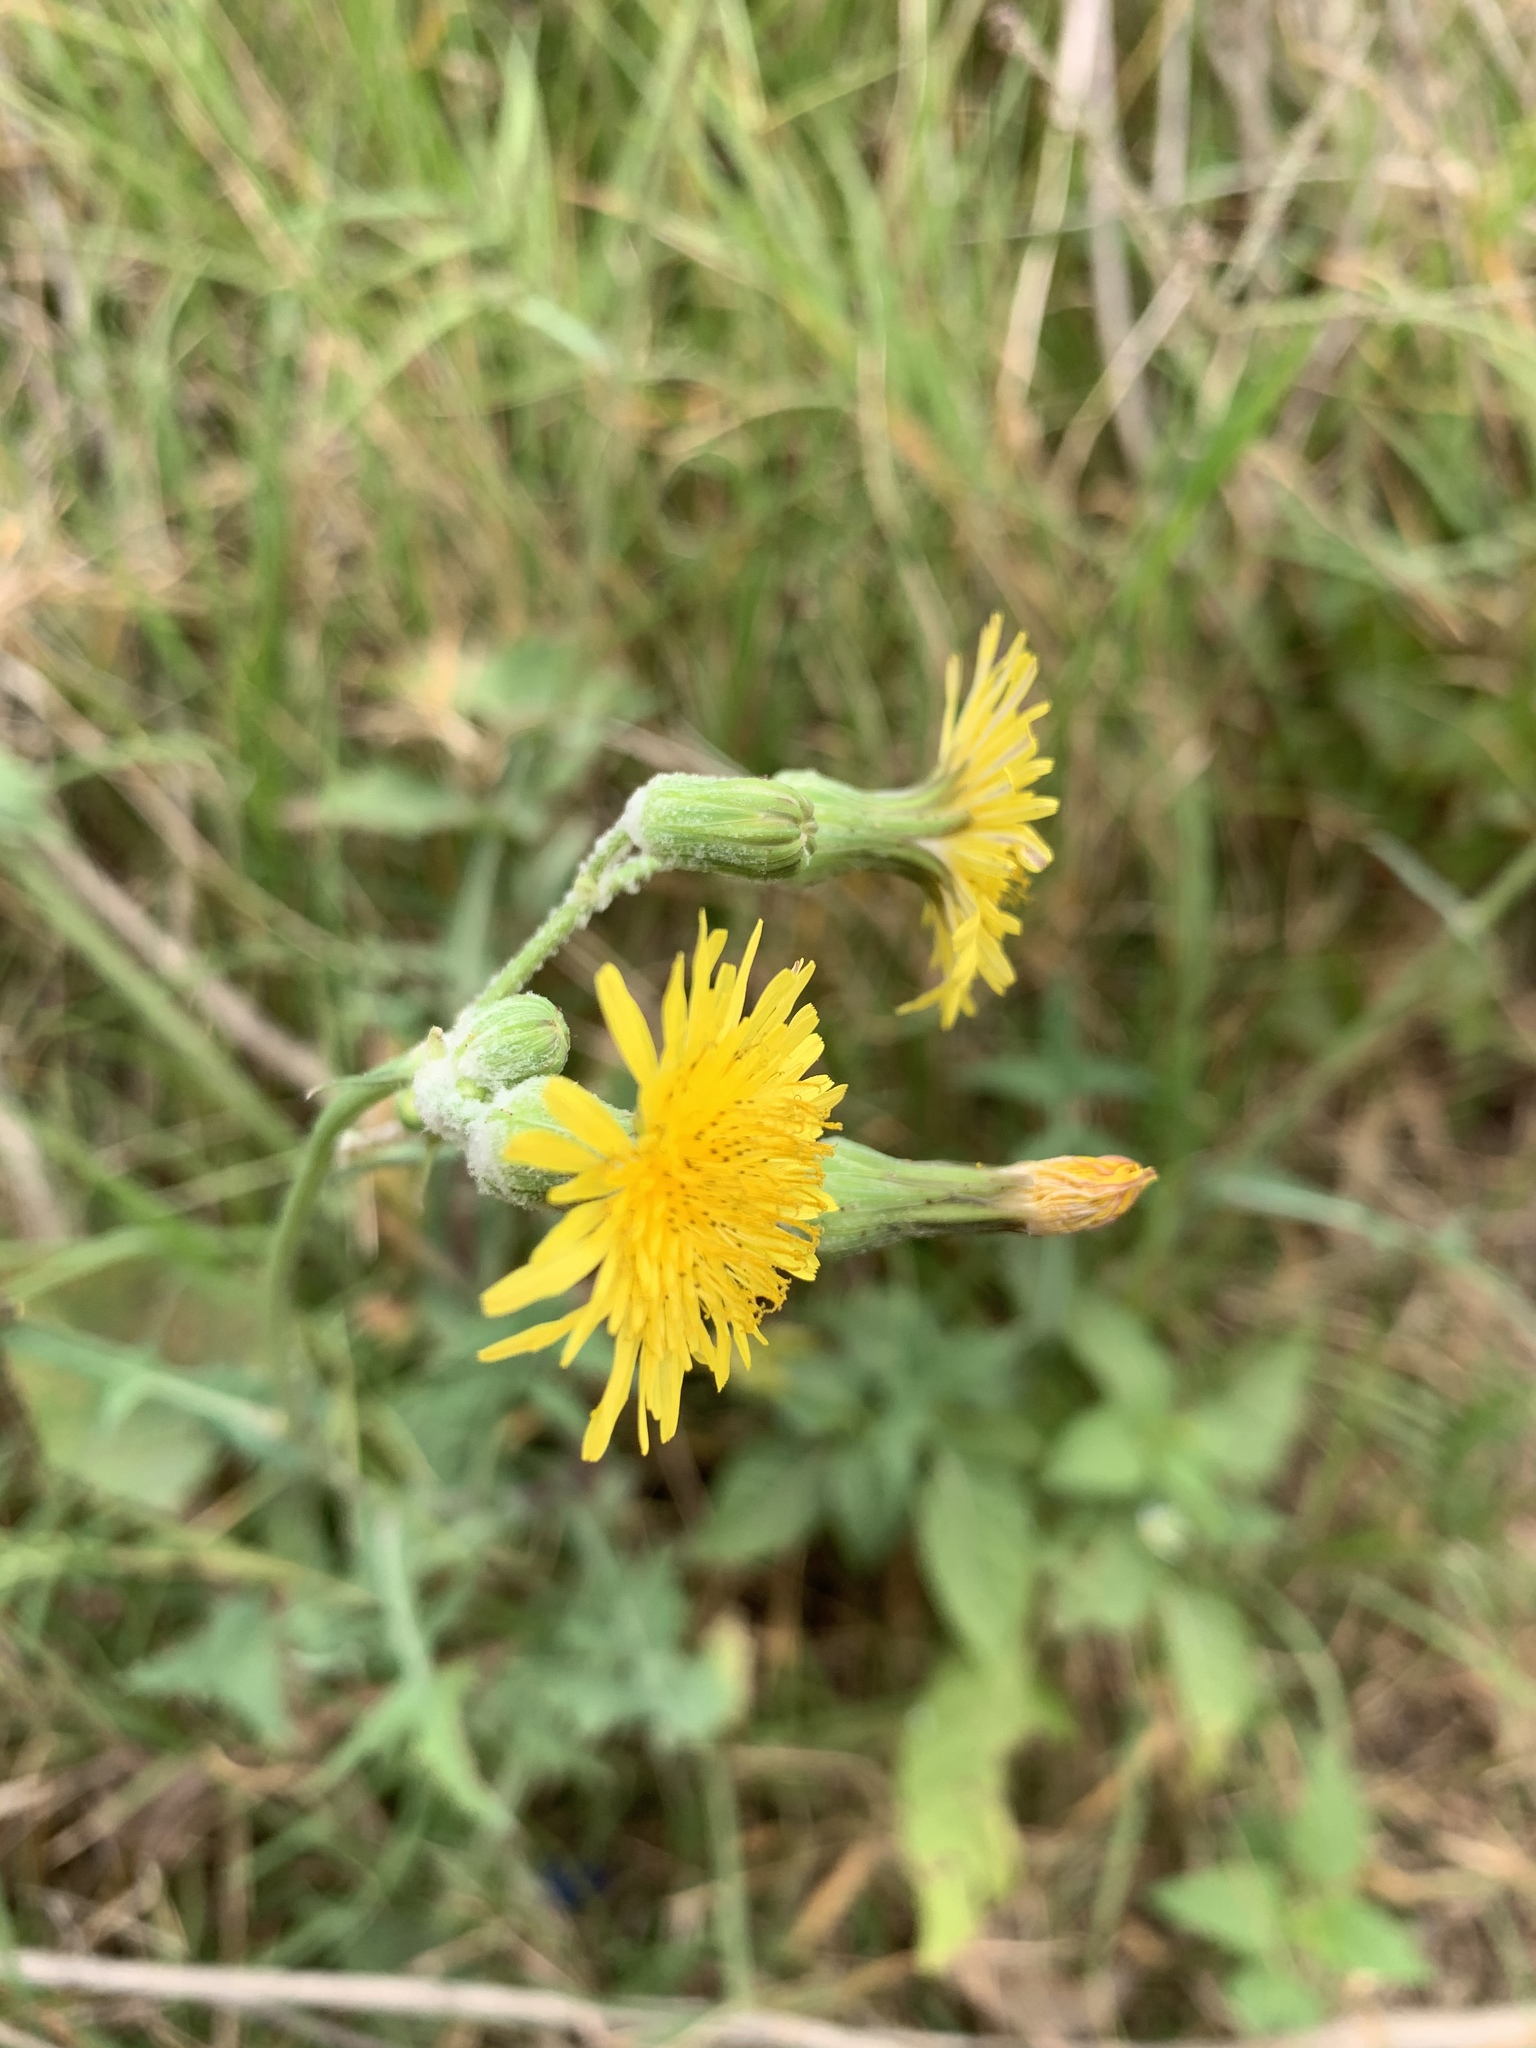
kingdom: Plantae
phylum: Tracheophyta
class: Magnoliopsida
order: Asterales
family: Asteraceae
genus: Sonchus
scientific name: Sonchus oleraceus
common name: Common sowthistle
